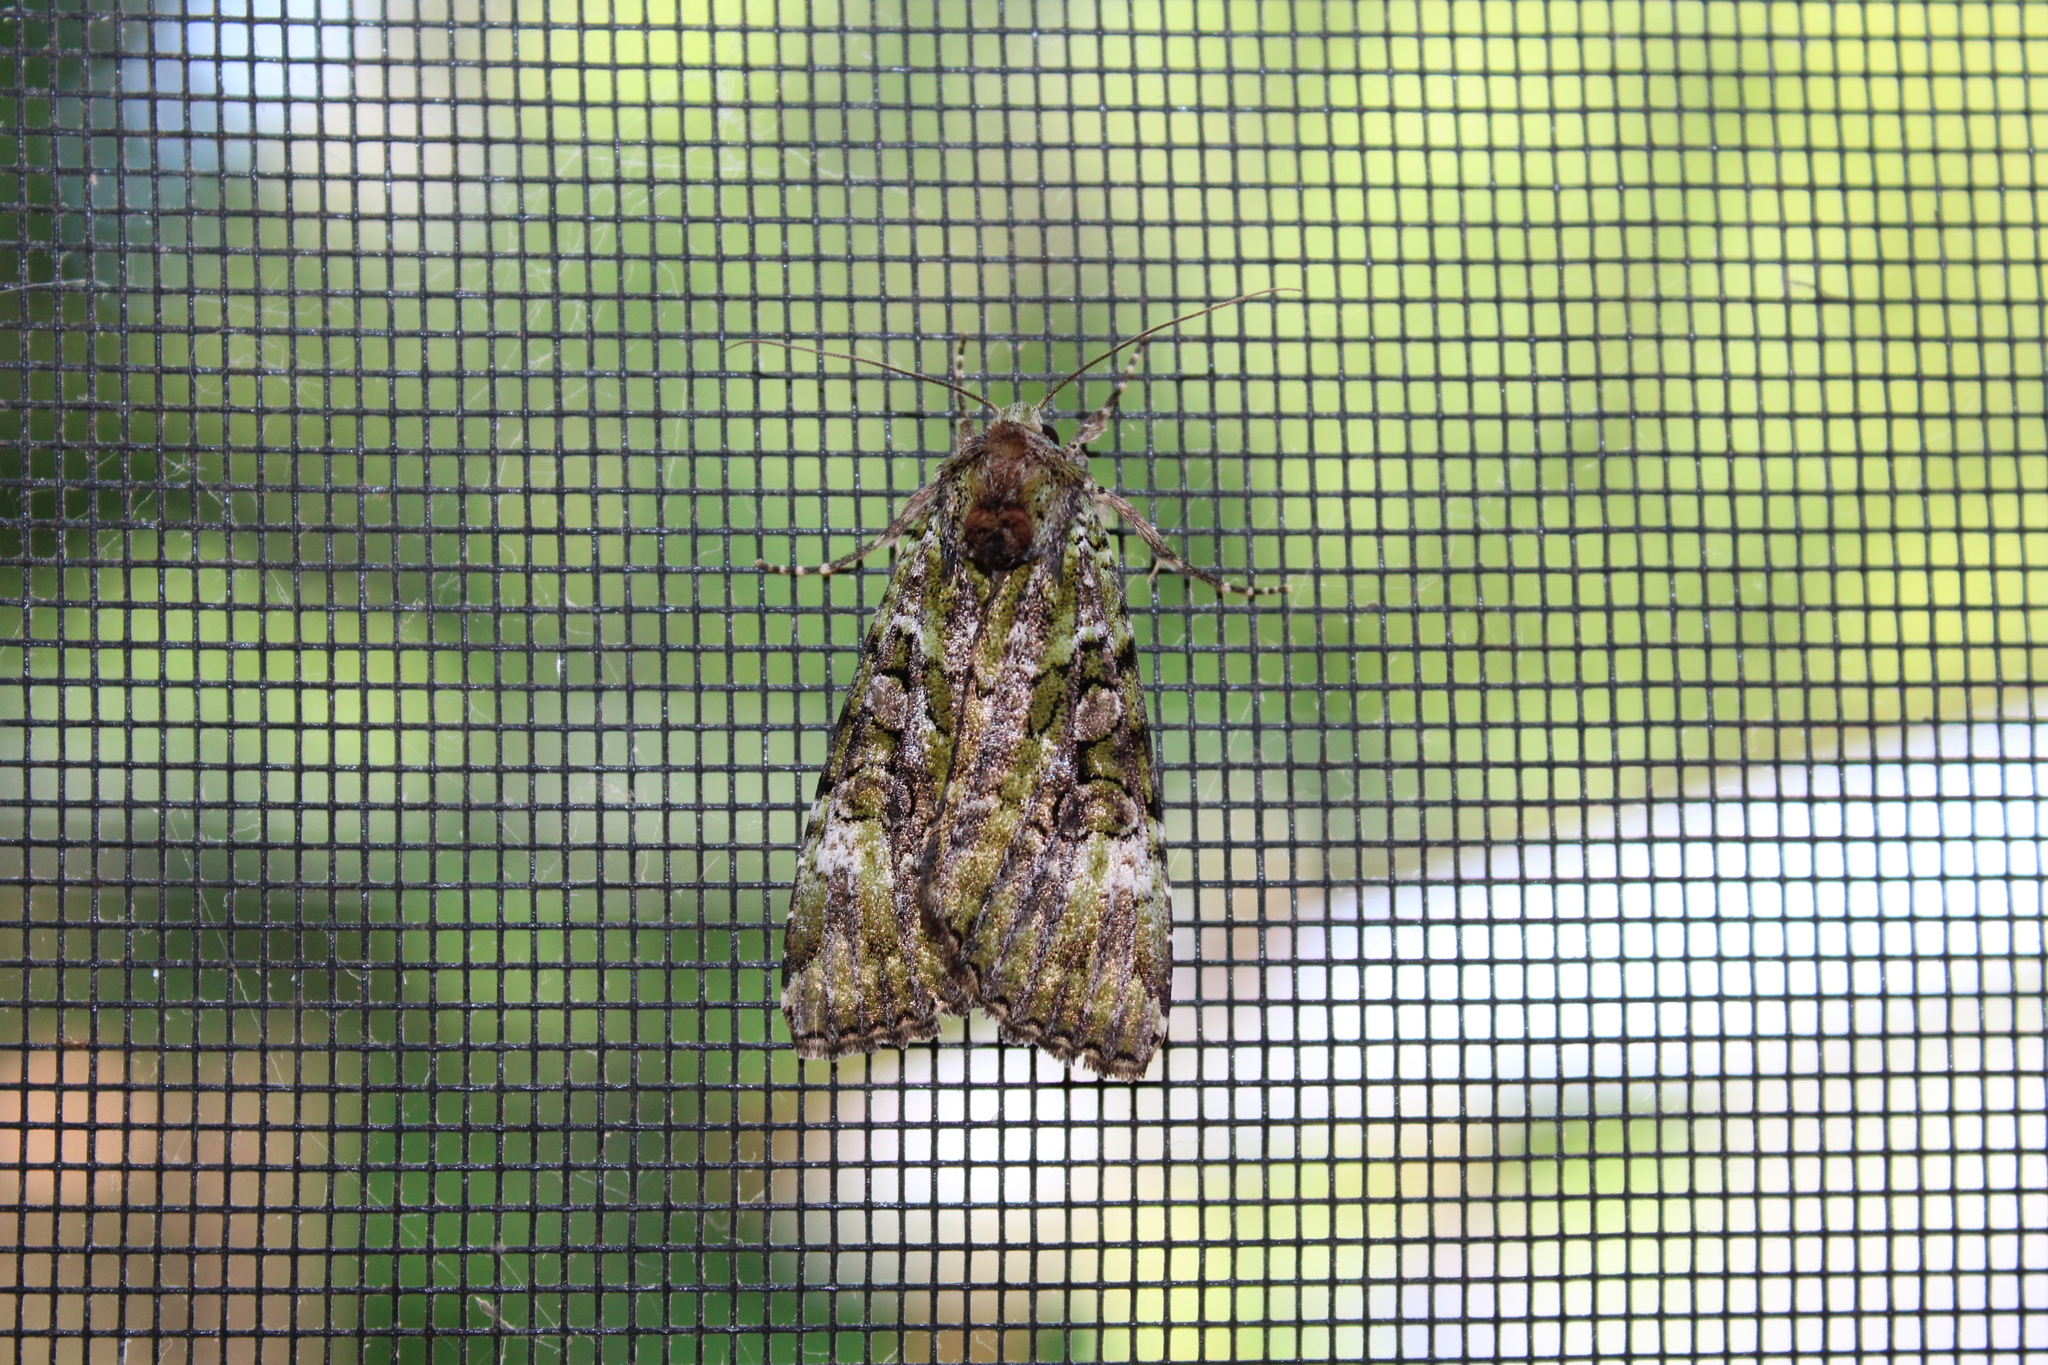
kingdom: Animalia
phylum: Arthropoda
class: Insecta
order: Lepidoptera
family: Noctuidae
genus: Anaplectoides
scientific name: Anaplectoides prasina
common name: Green arches
